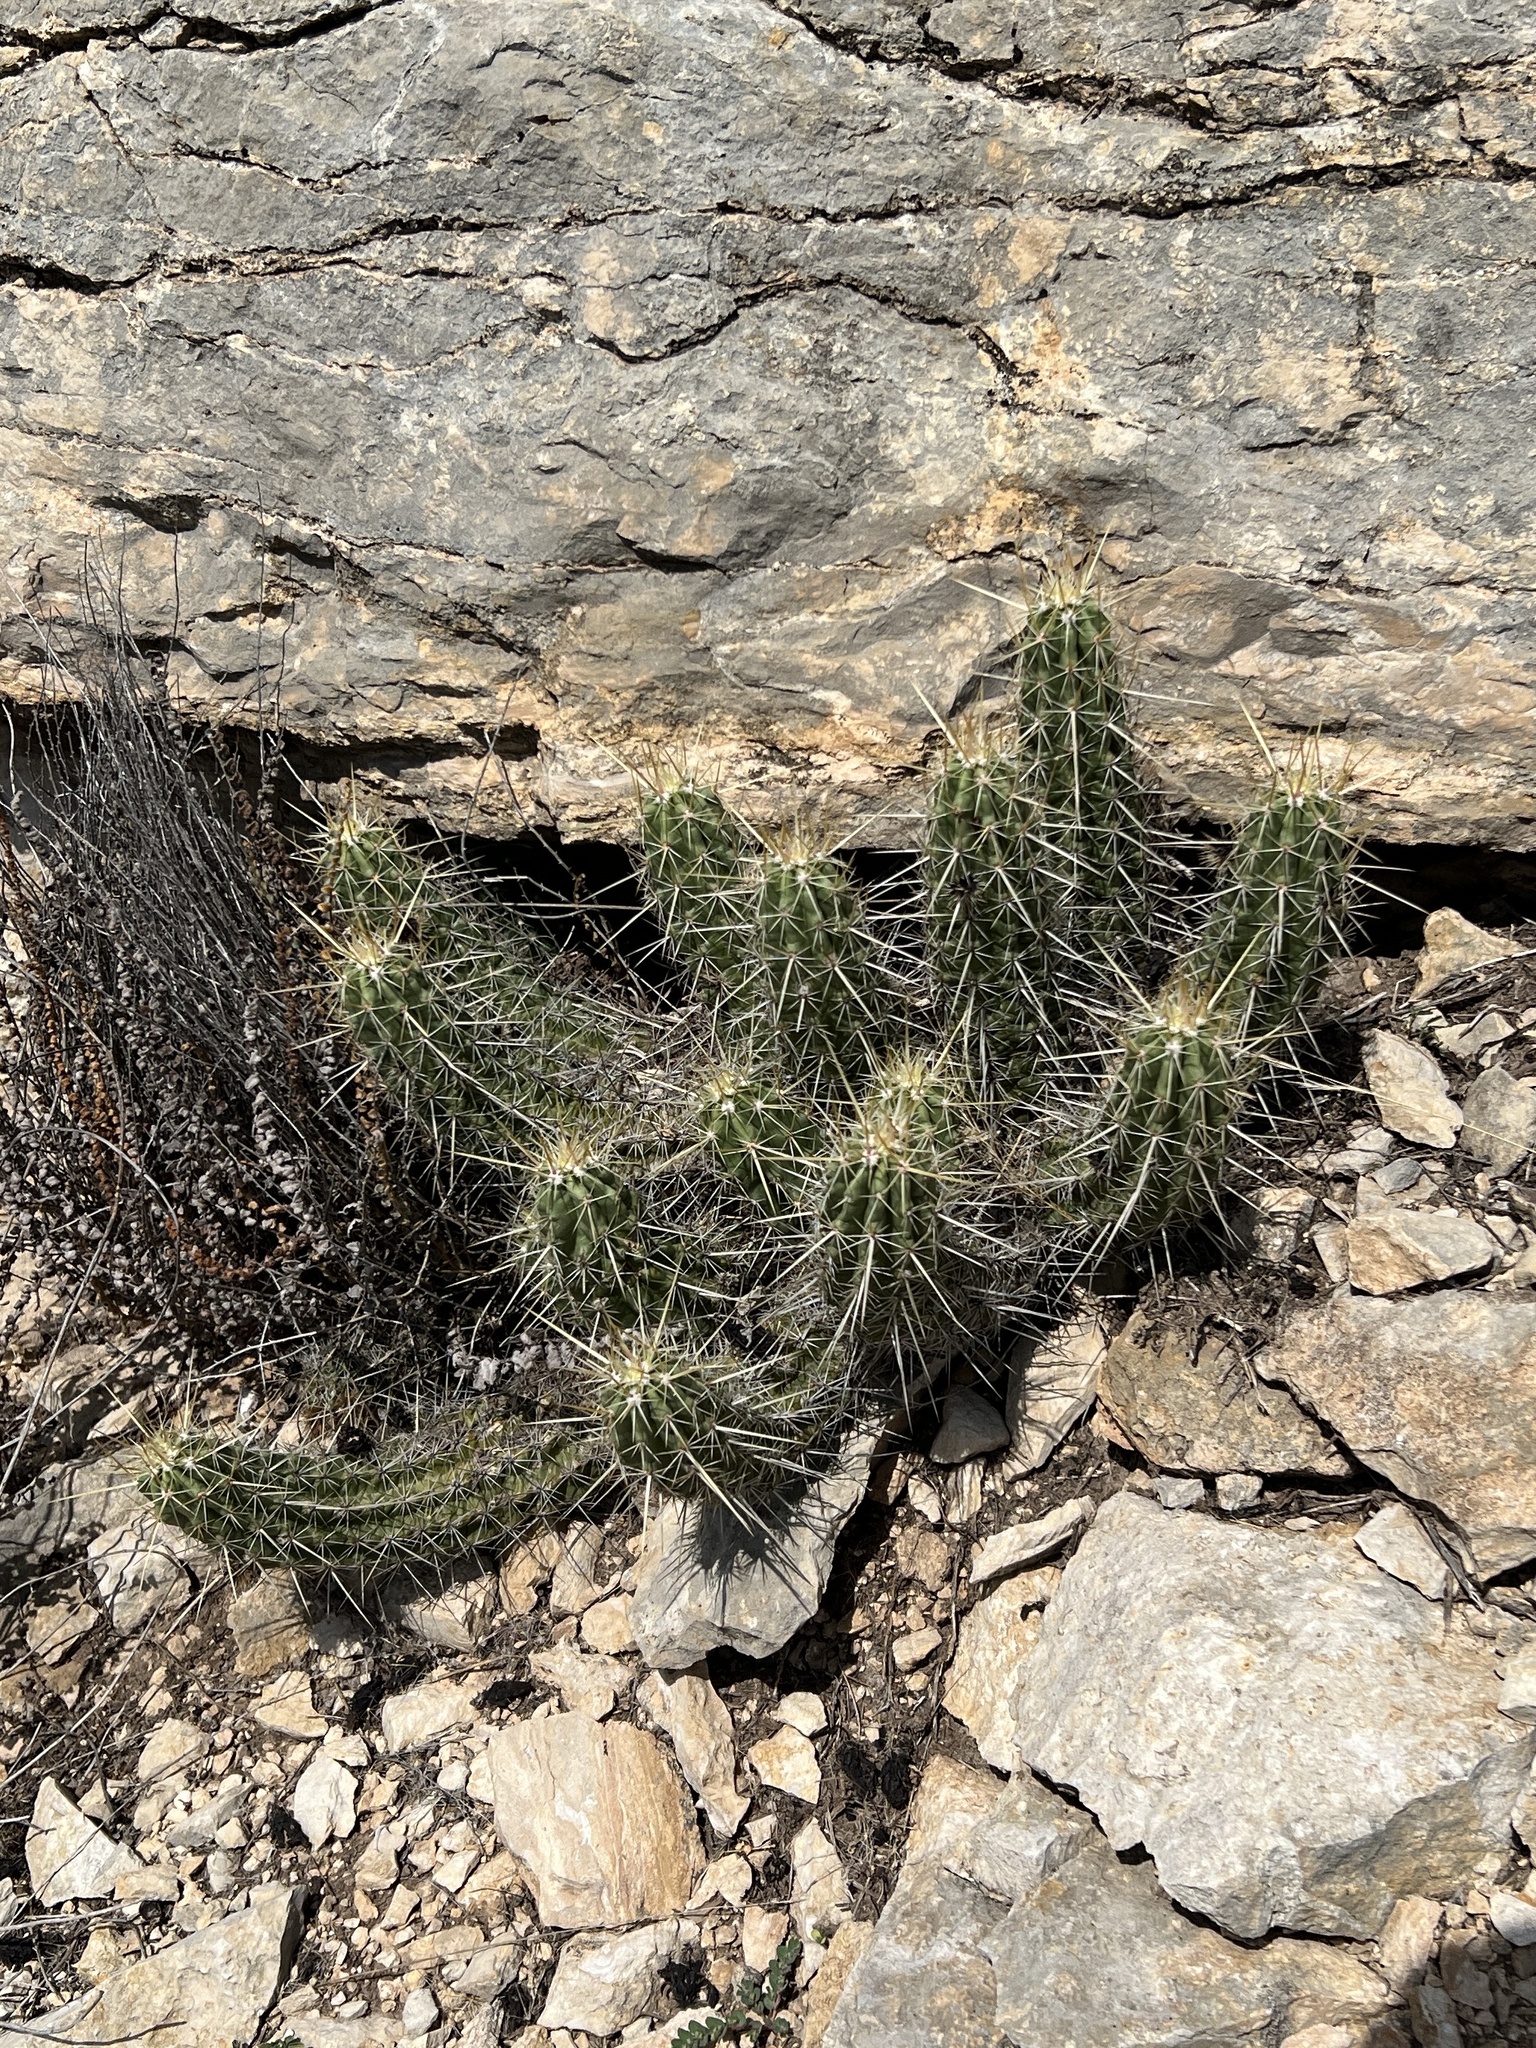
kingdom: Plantae
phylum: Tracheophyta
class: Magnoliopsida
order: Caryophyllales
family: Cactaceae
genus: Echinocereus
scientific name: Echinocereus enneacanthus
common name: Pitaya
